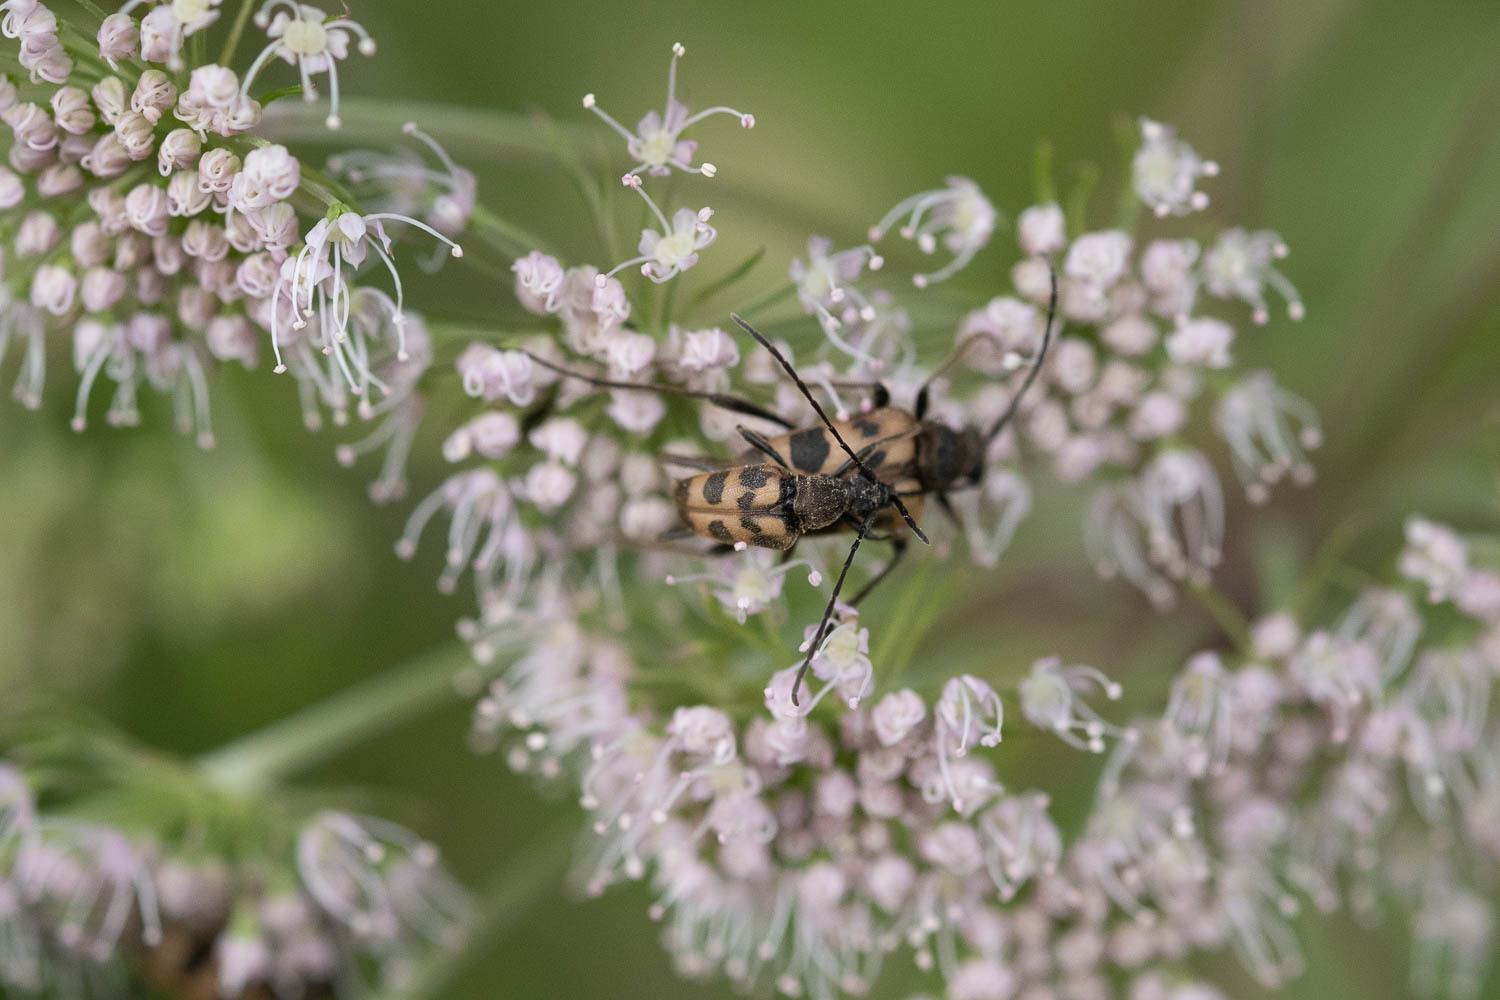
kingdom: Animalia
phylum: Arthropoda
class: Insecta
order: Coleoptera
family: Cerambycidae
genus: Pachytodes
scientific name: Pachytodes cerambyciformis
